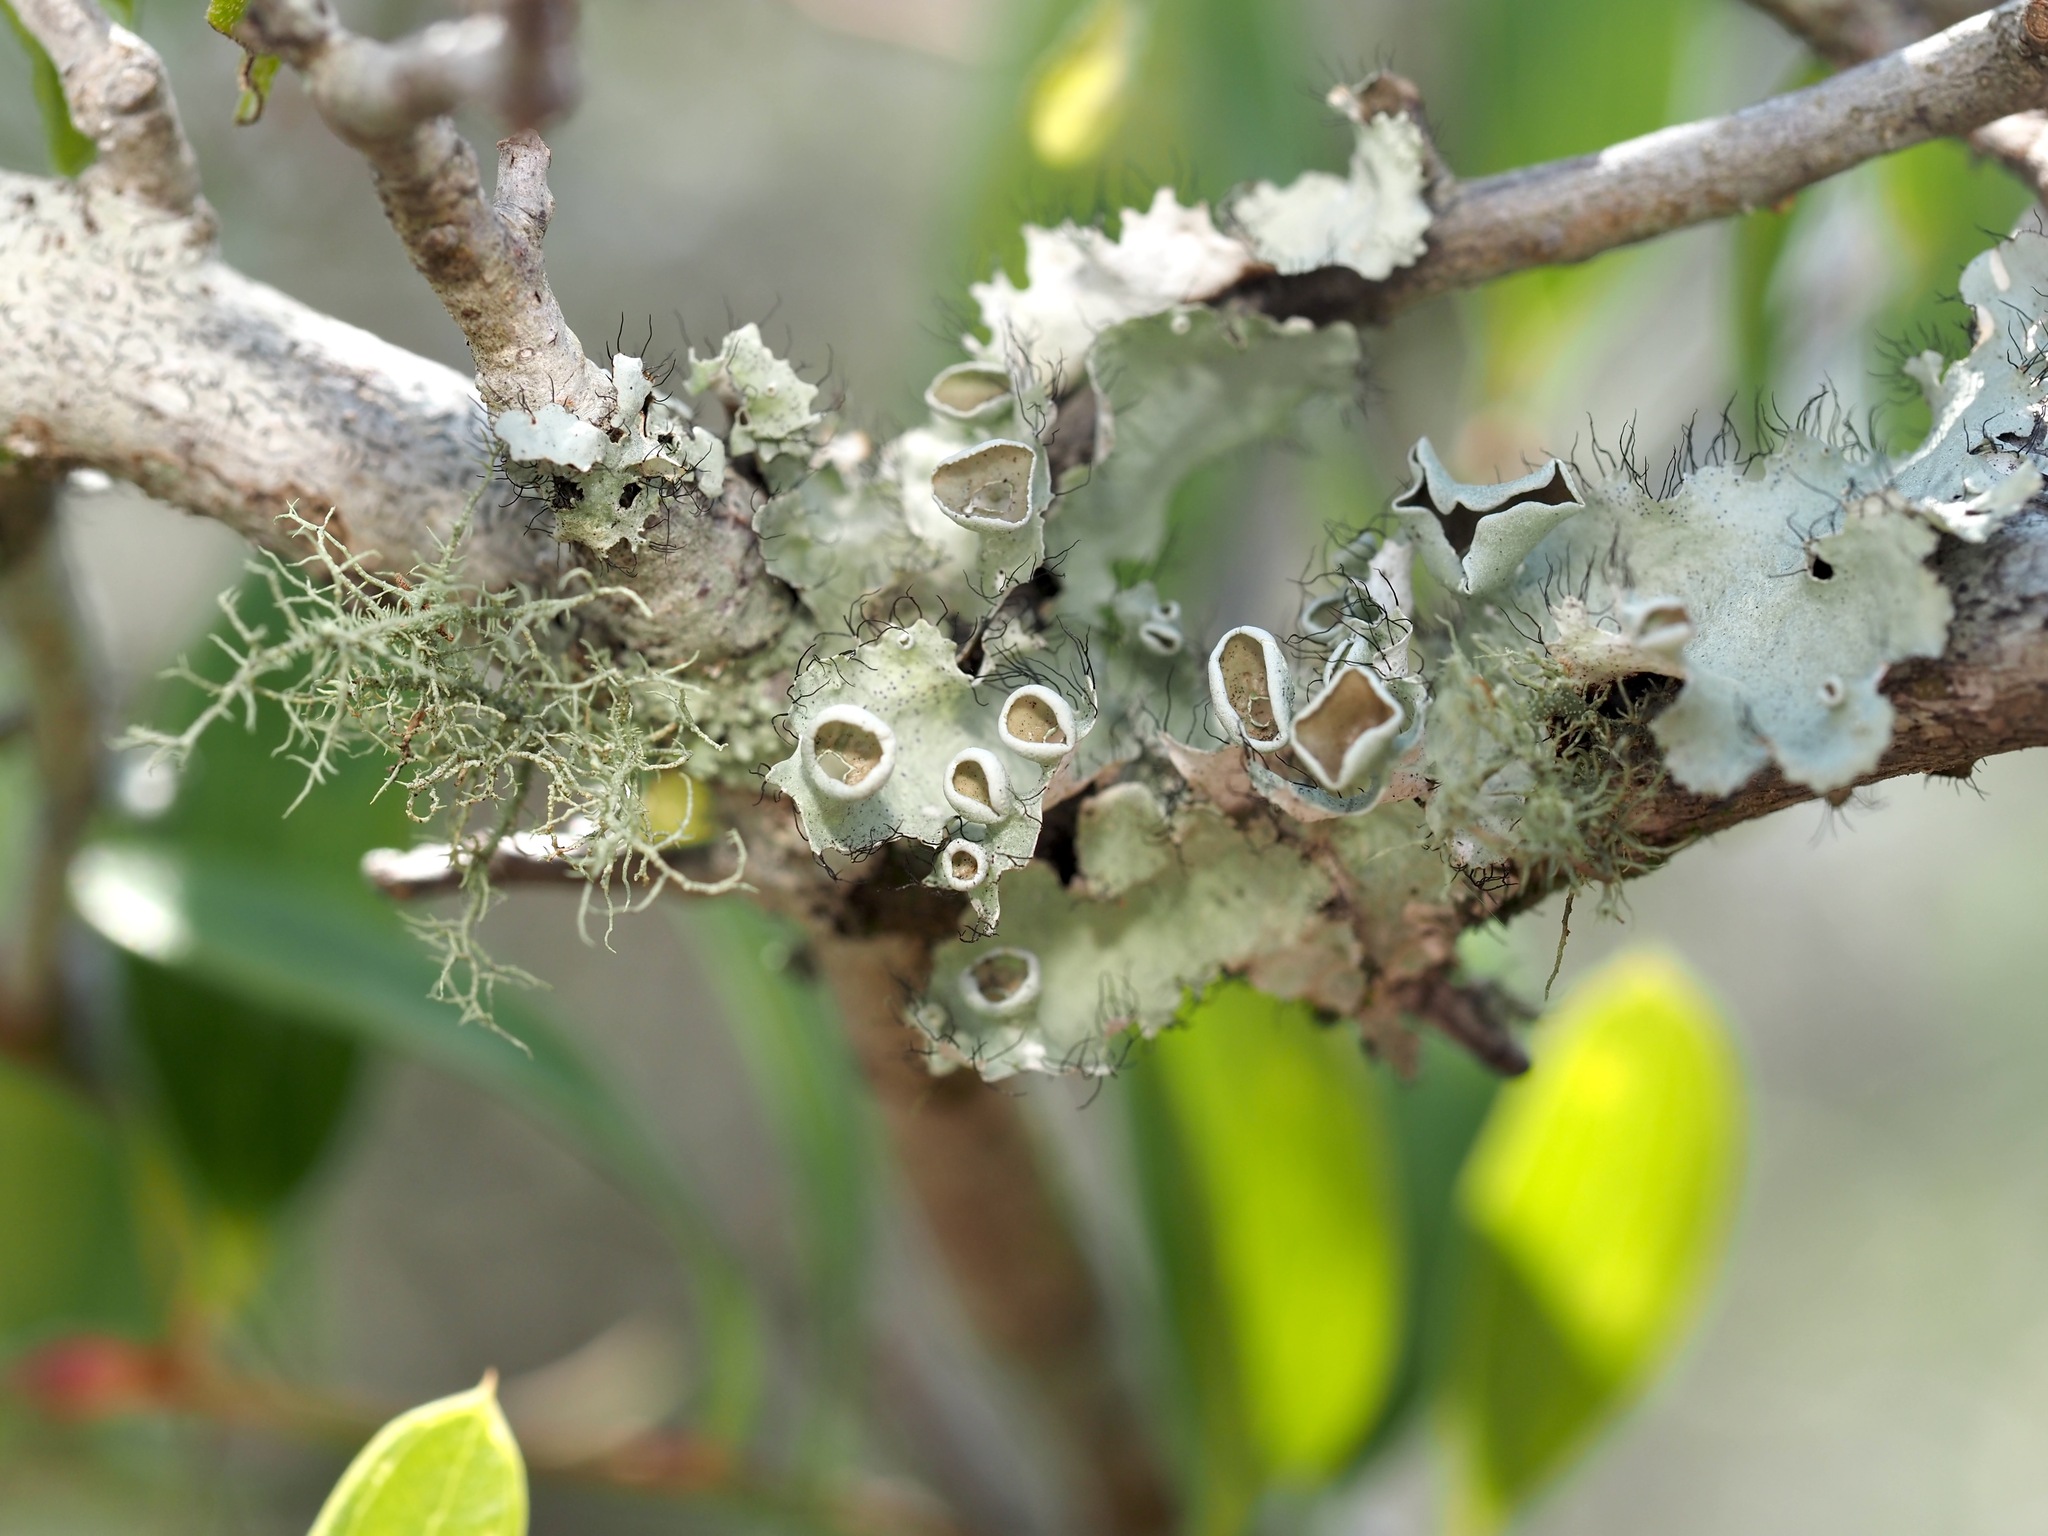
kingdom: Fungi
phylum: Ascomycota
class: Lecanoromycetes
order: Lecanorales
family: Parmeliaceae
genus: Parmotrema
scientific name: Parmotrema perforatum
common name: Perforated ruffle lichen
